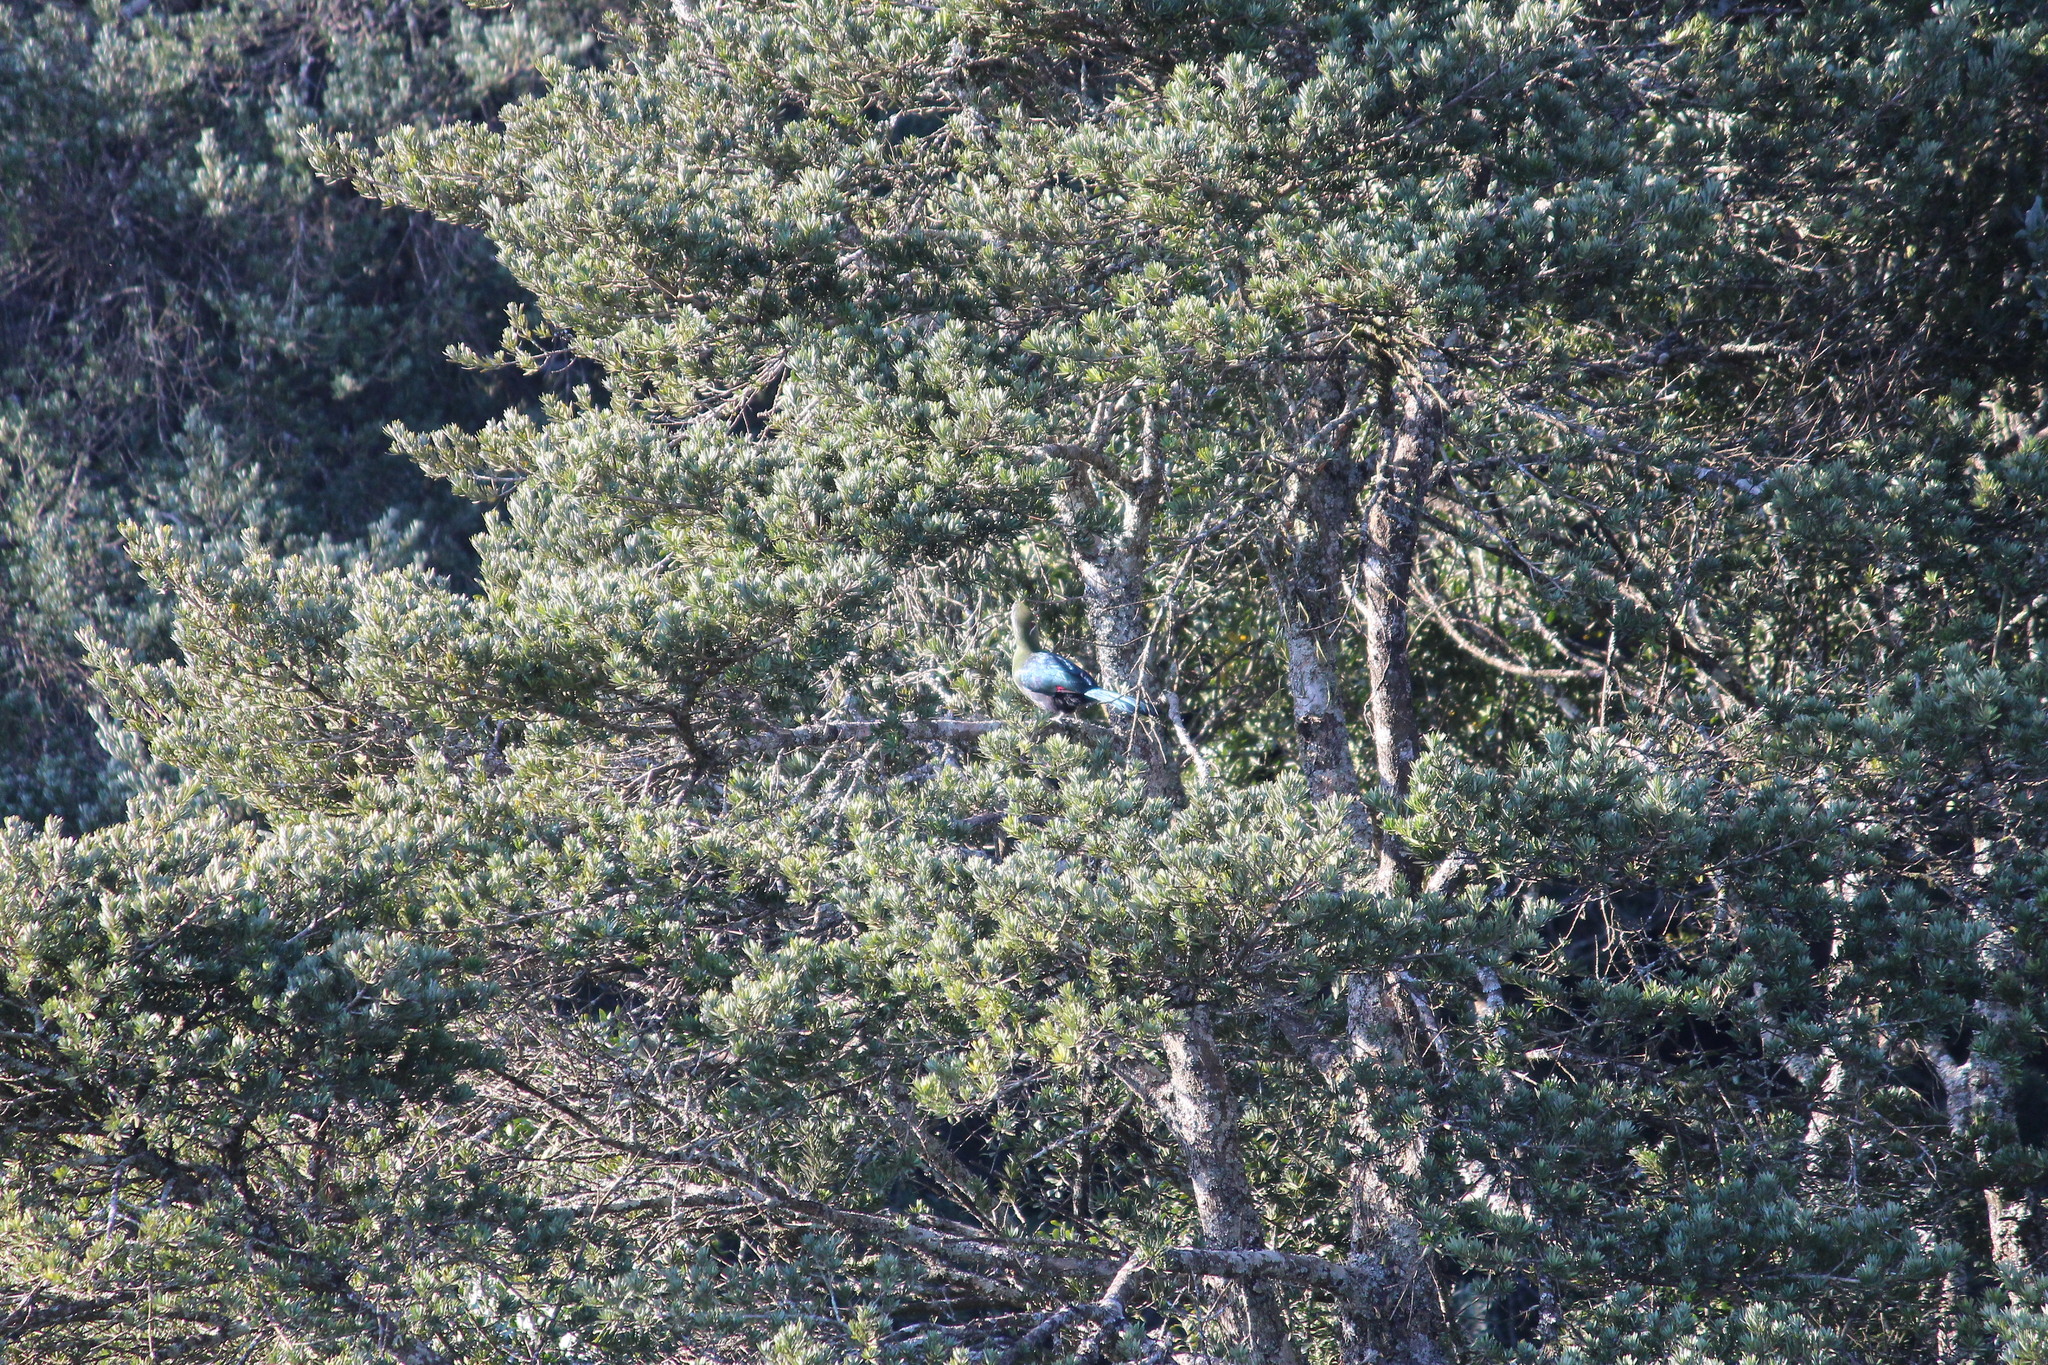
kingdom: Animalia
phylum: Chordata
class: Aves
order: Musophagiformes
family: Musophagidae
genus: Tauraco
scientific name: Tauraco corythaix
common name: Knysna turaco
